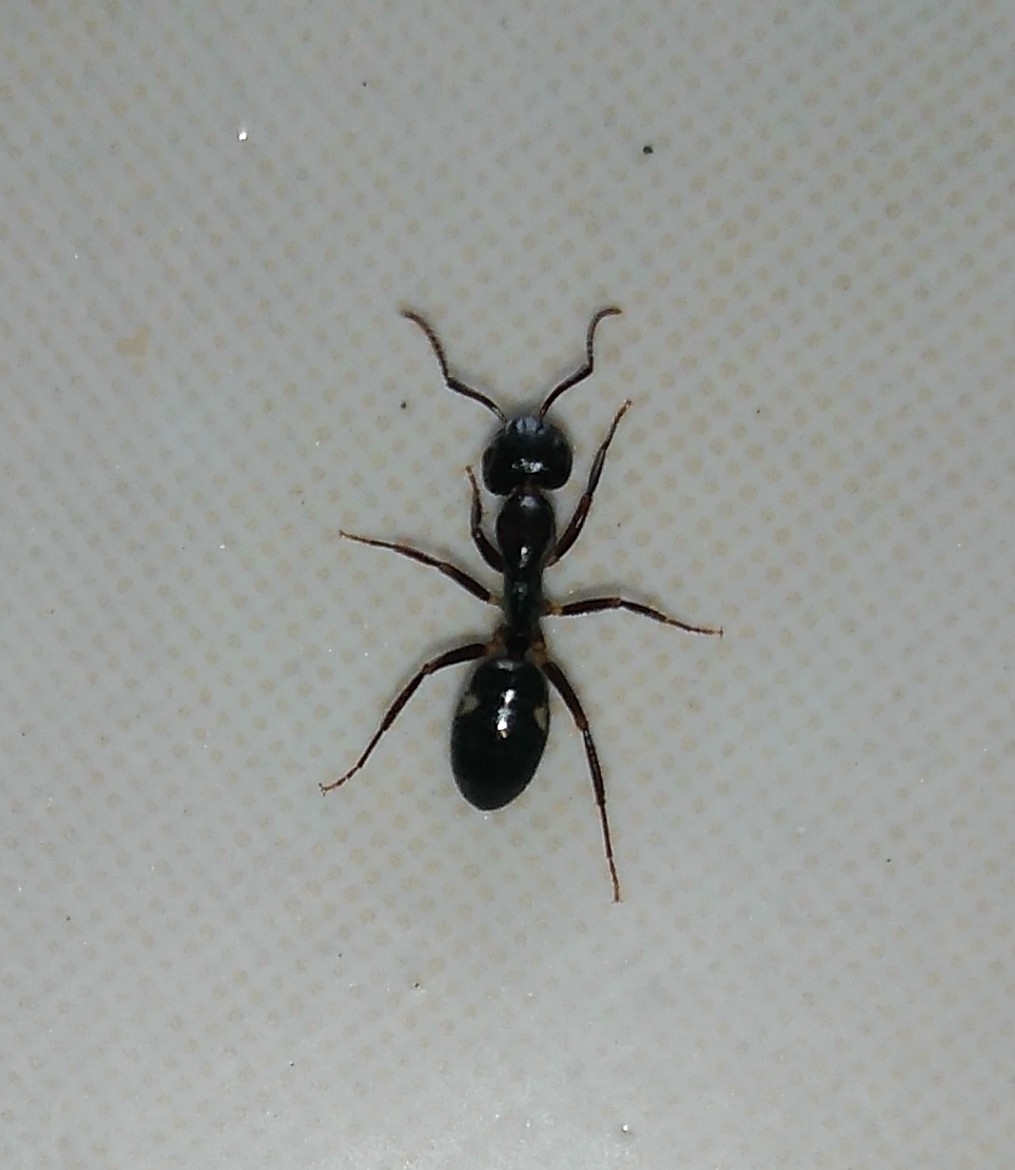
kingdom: Animalia
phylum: Arthropoda
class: Insecta
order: Hymenoptera
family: Formicidae
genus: Camponotus
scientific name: Camponotus sexguttatus
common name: Neotropical carpenter ant
